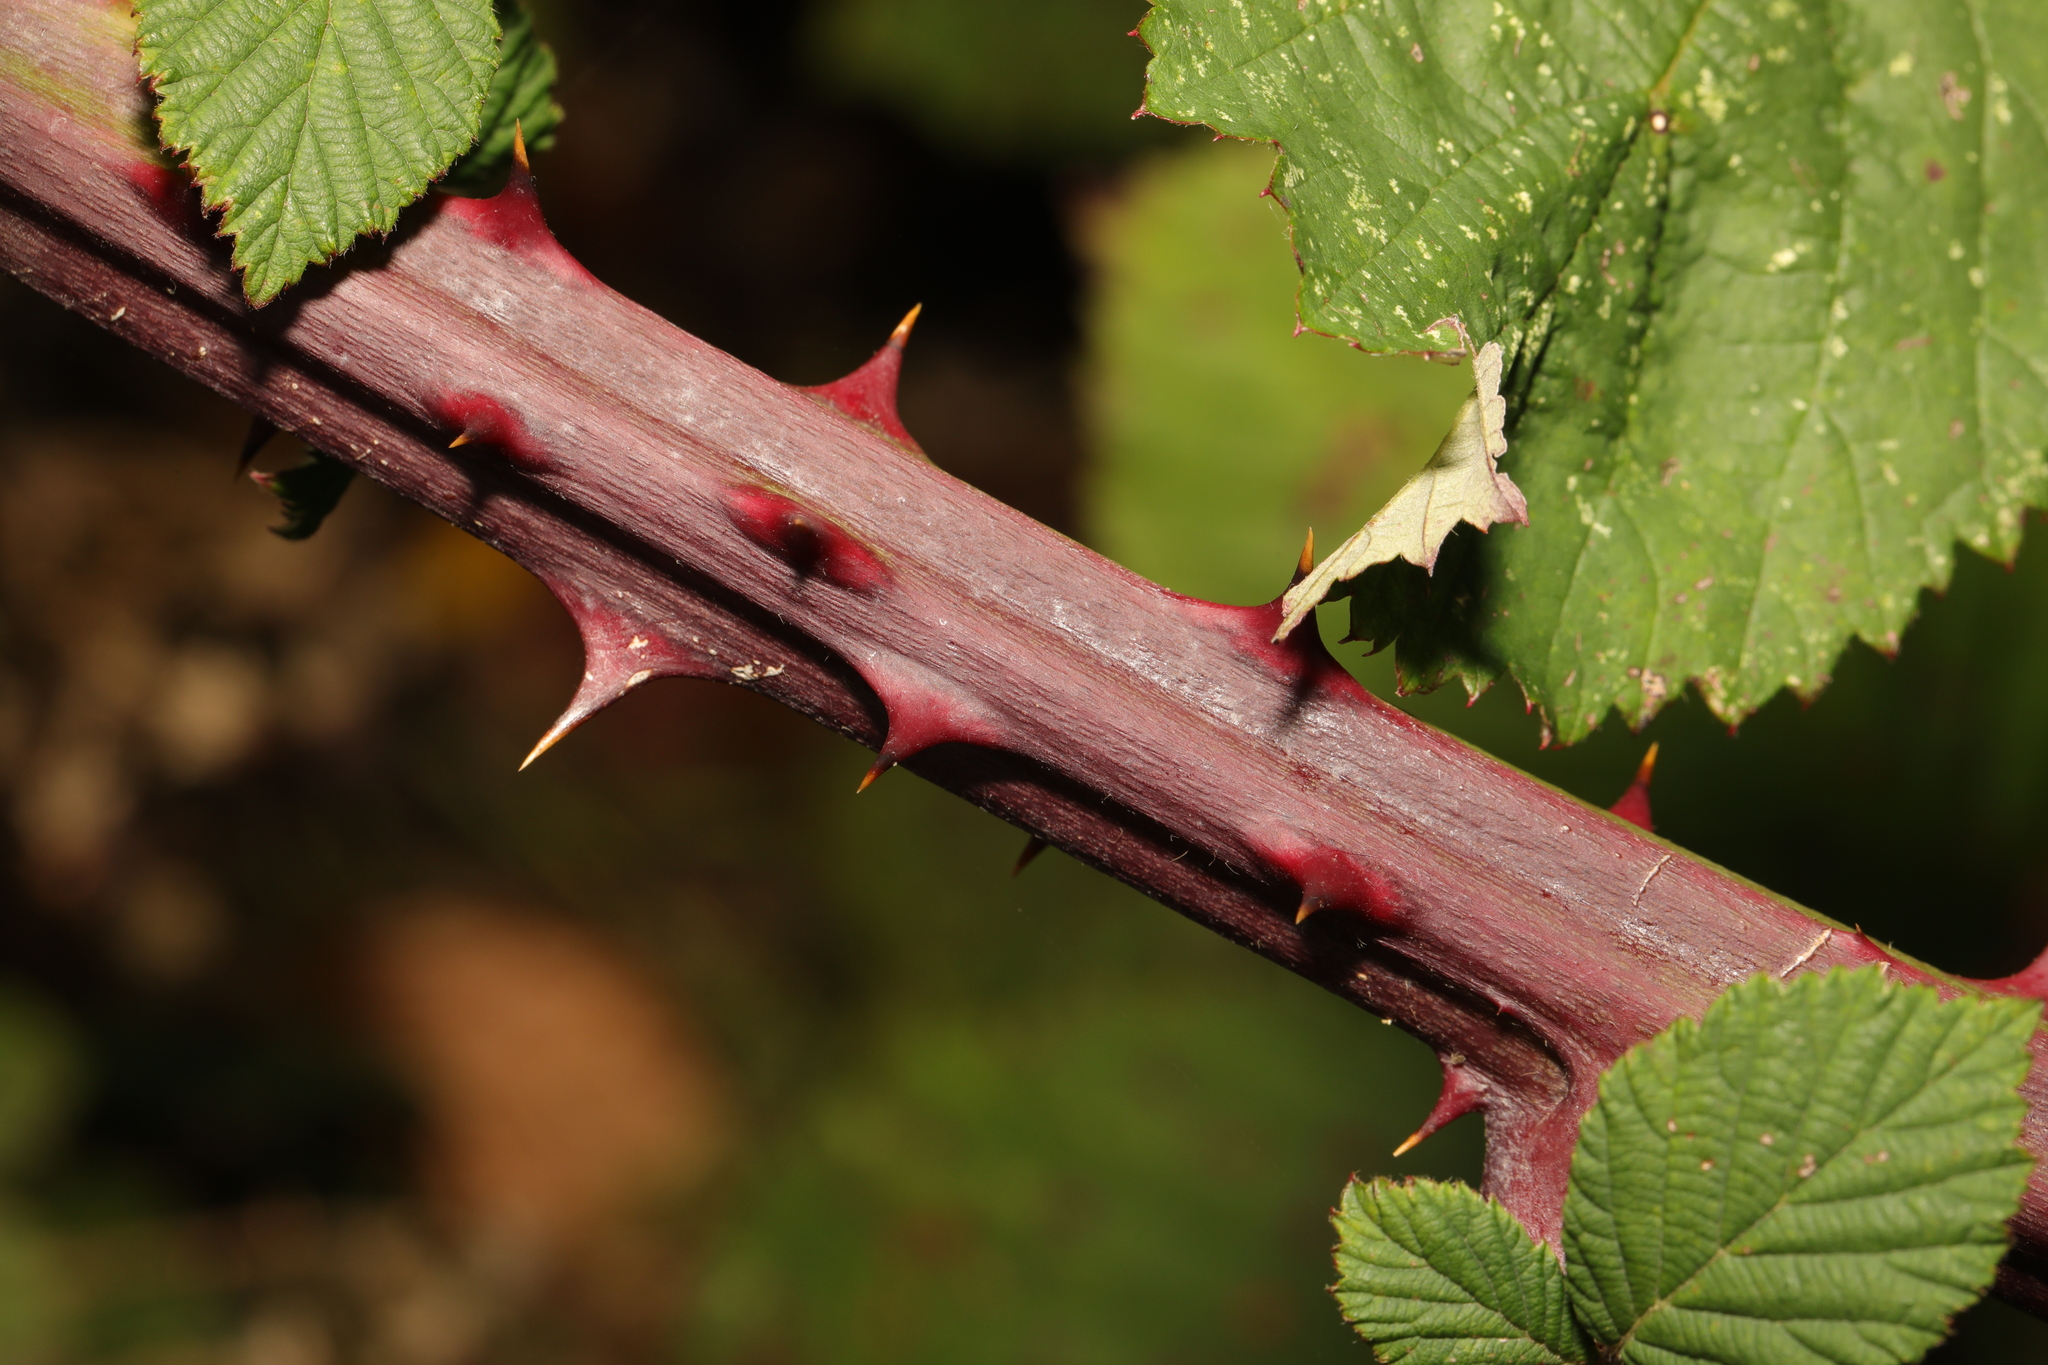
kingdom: Plantae
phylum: Tracheophyta
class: Magnoliopsida
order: Rosales
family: Rosaceae
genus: Rubus
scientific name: Rubus armeniacus
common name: Himalayan blackberry
